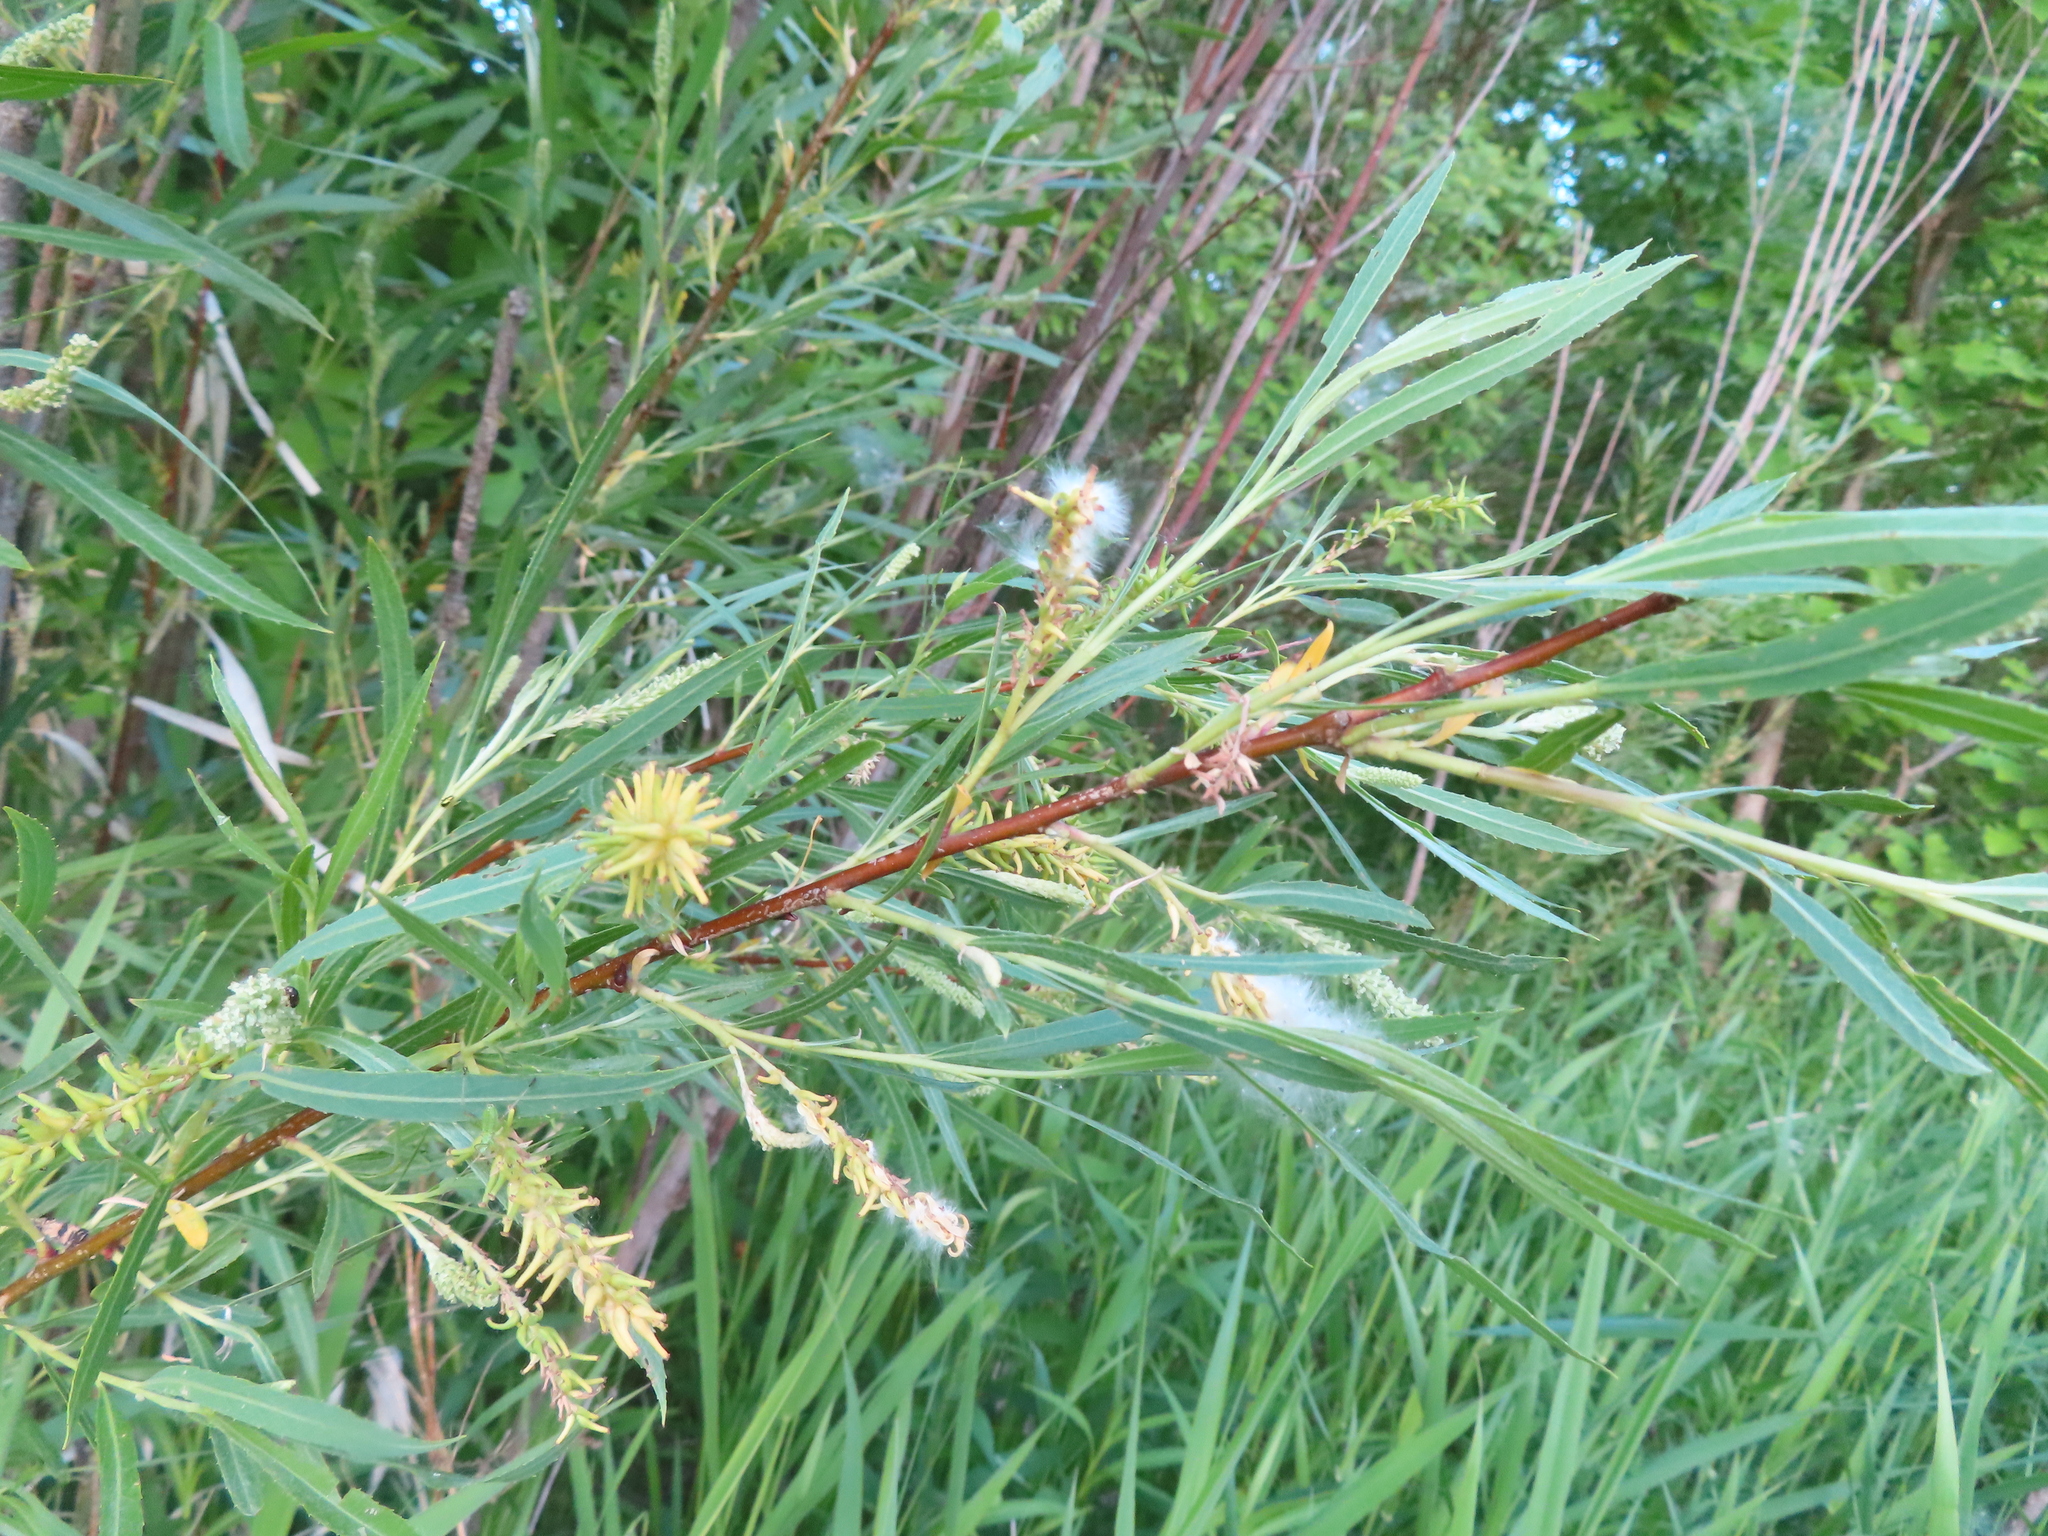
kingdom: Plantae
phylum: Tracheophyta
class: Magnoliopsida
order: Malpighiales
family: Salicaceae
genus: Salix
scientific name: Salix interior
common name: Sandbar willow
